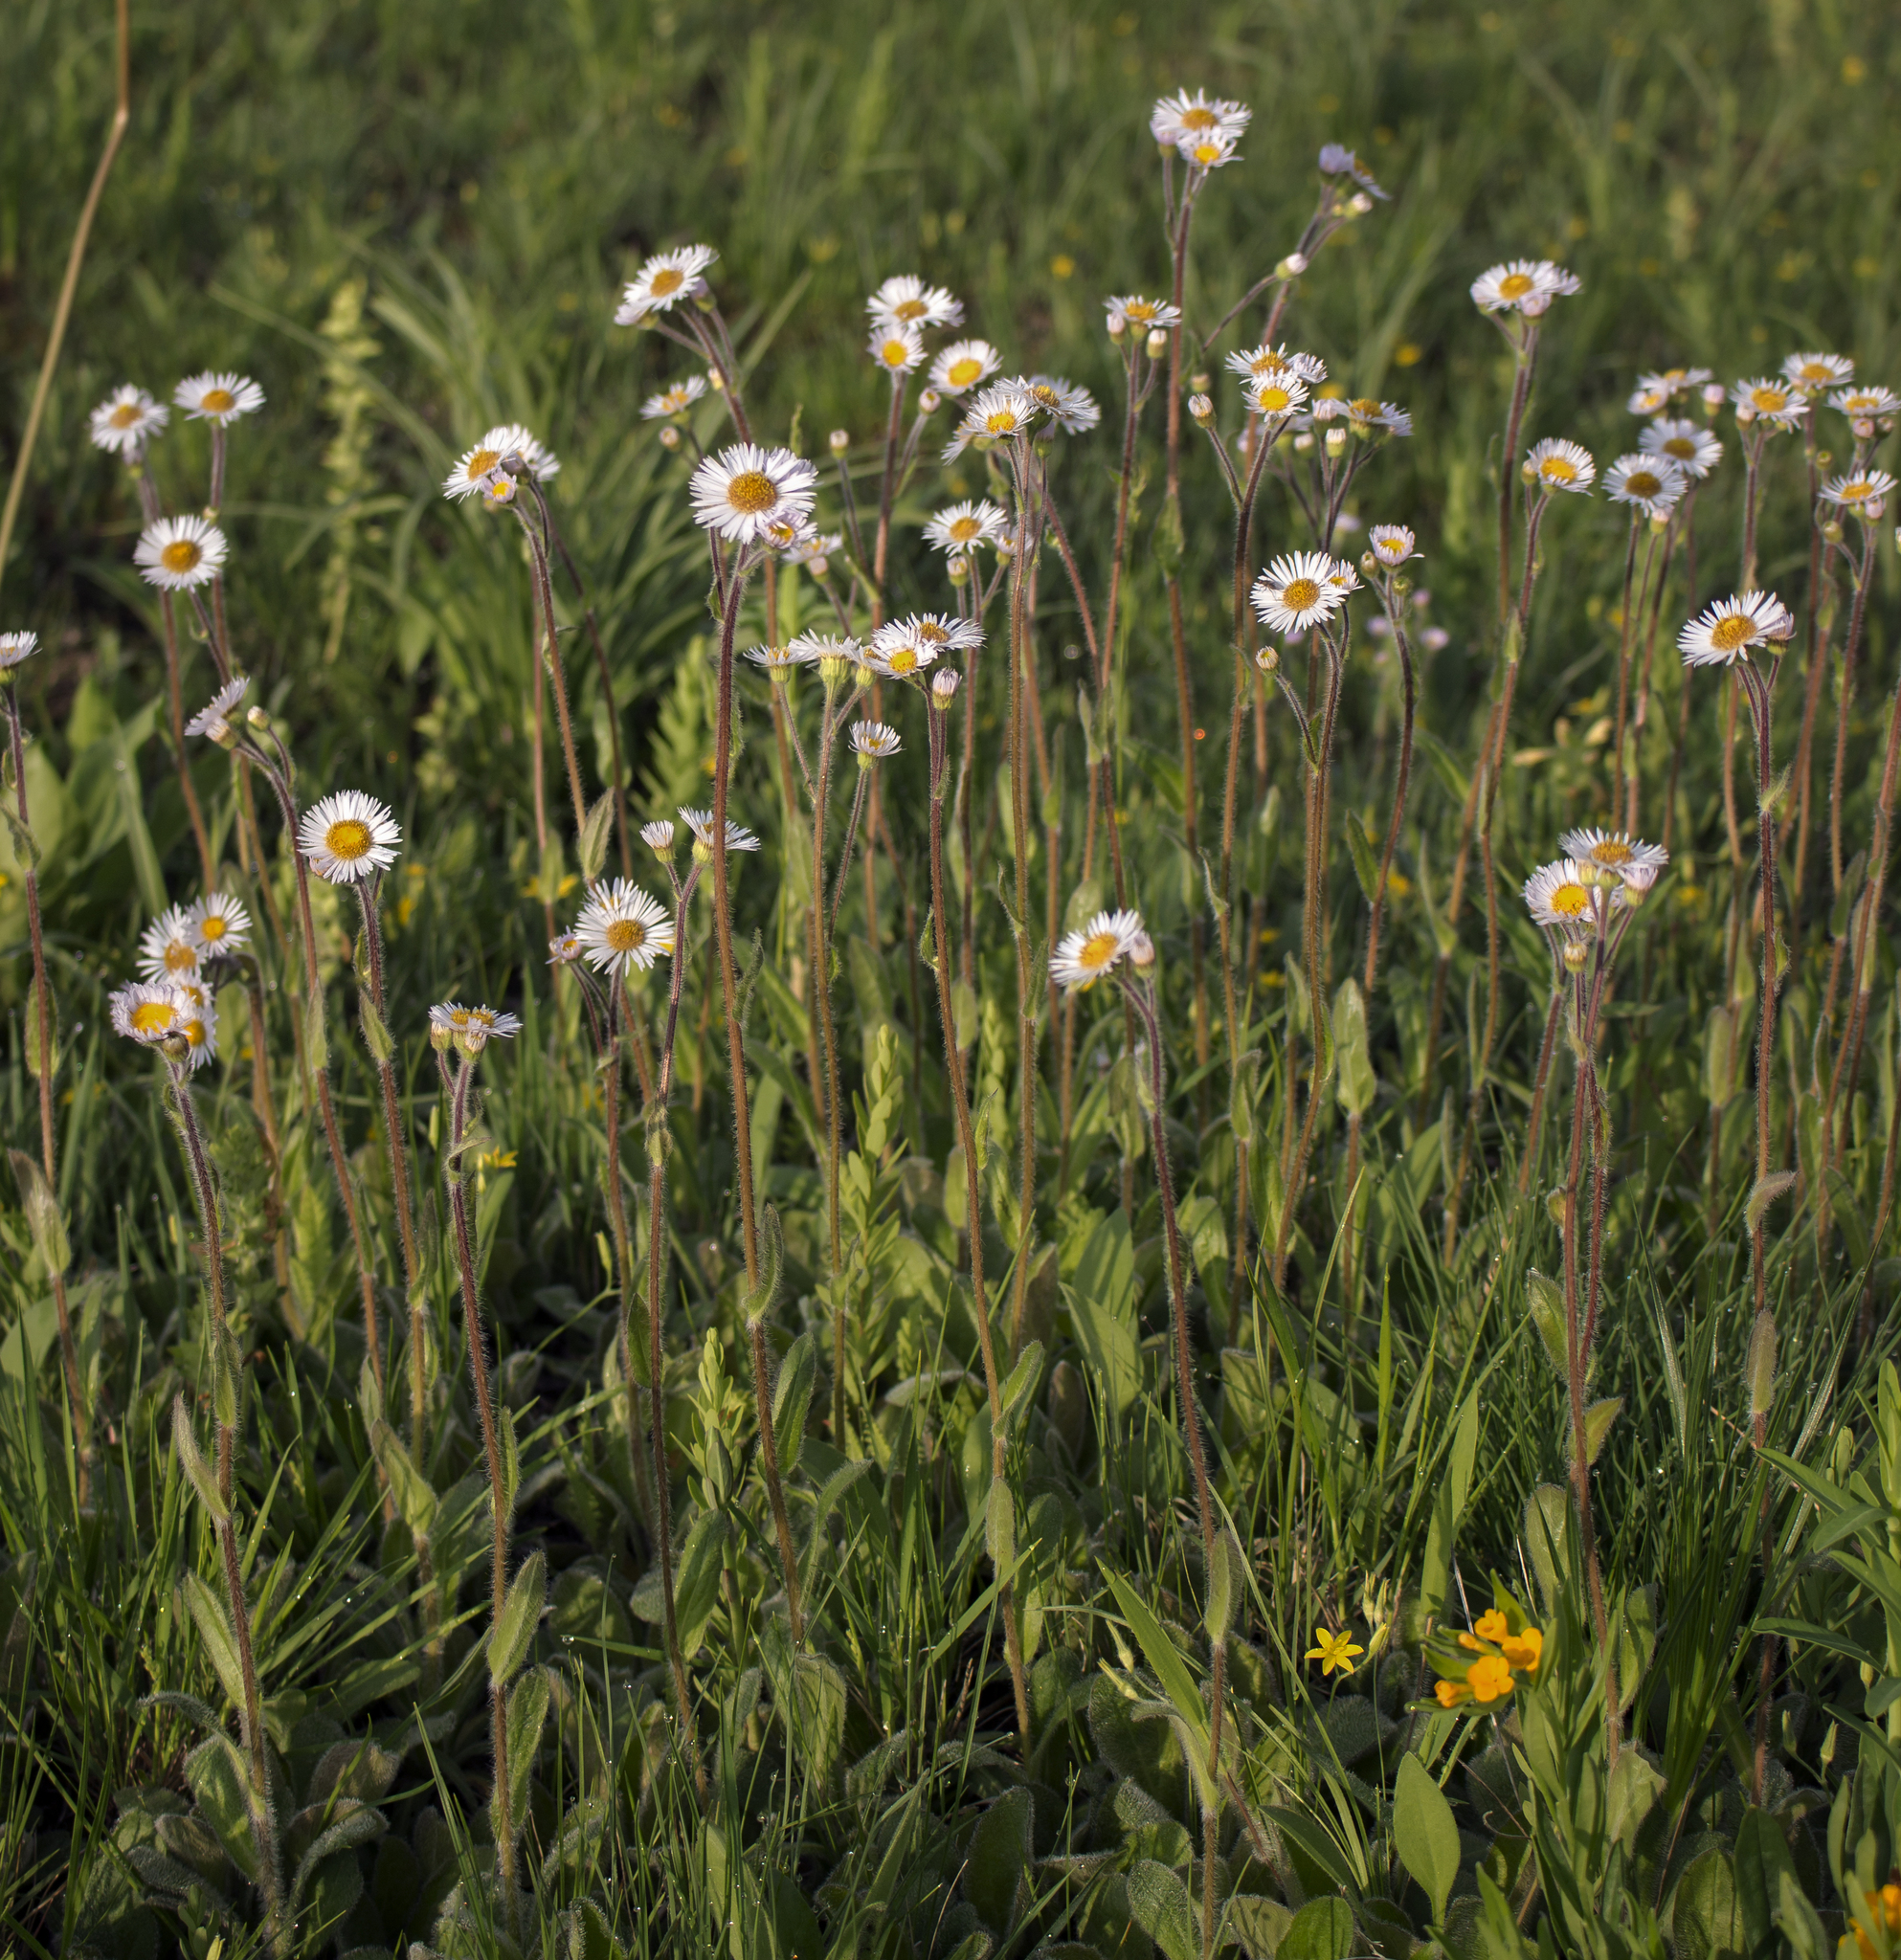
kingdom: Plantae
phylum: Tracheophyta
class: Magnoliopsida
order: Asterales
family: Asteraceae
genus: Erigeron
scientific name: Erigeron pulchellus
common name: Hairy fleabane
